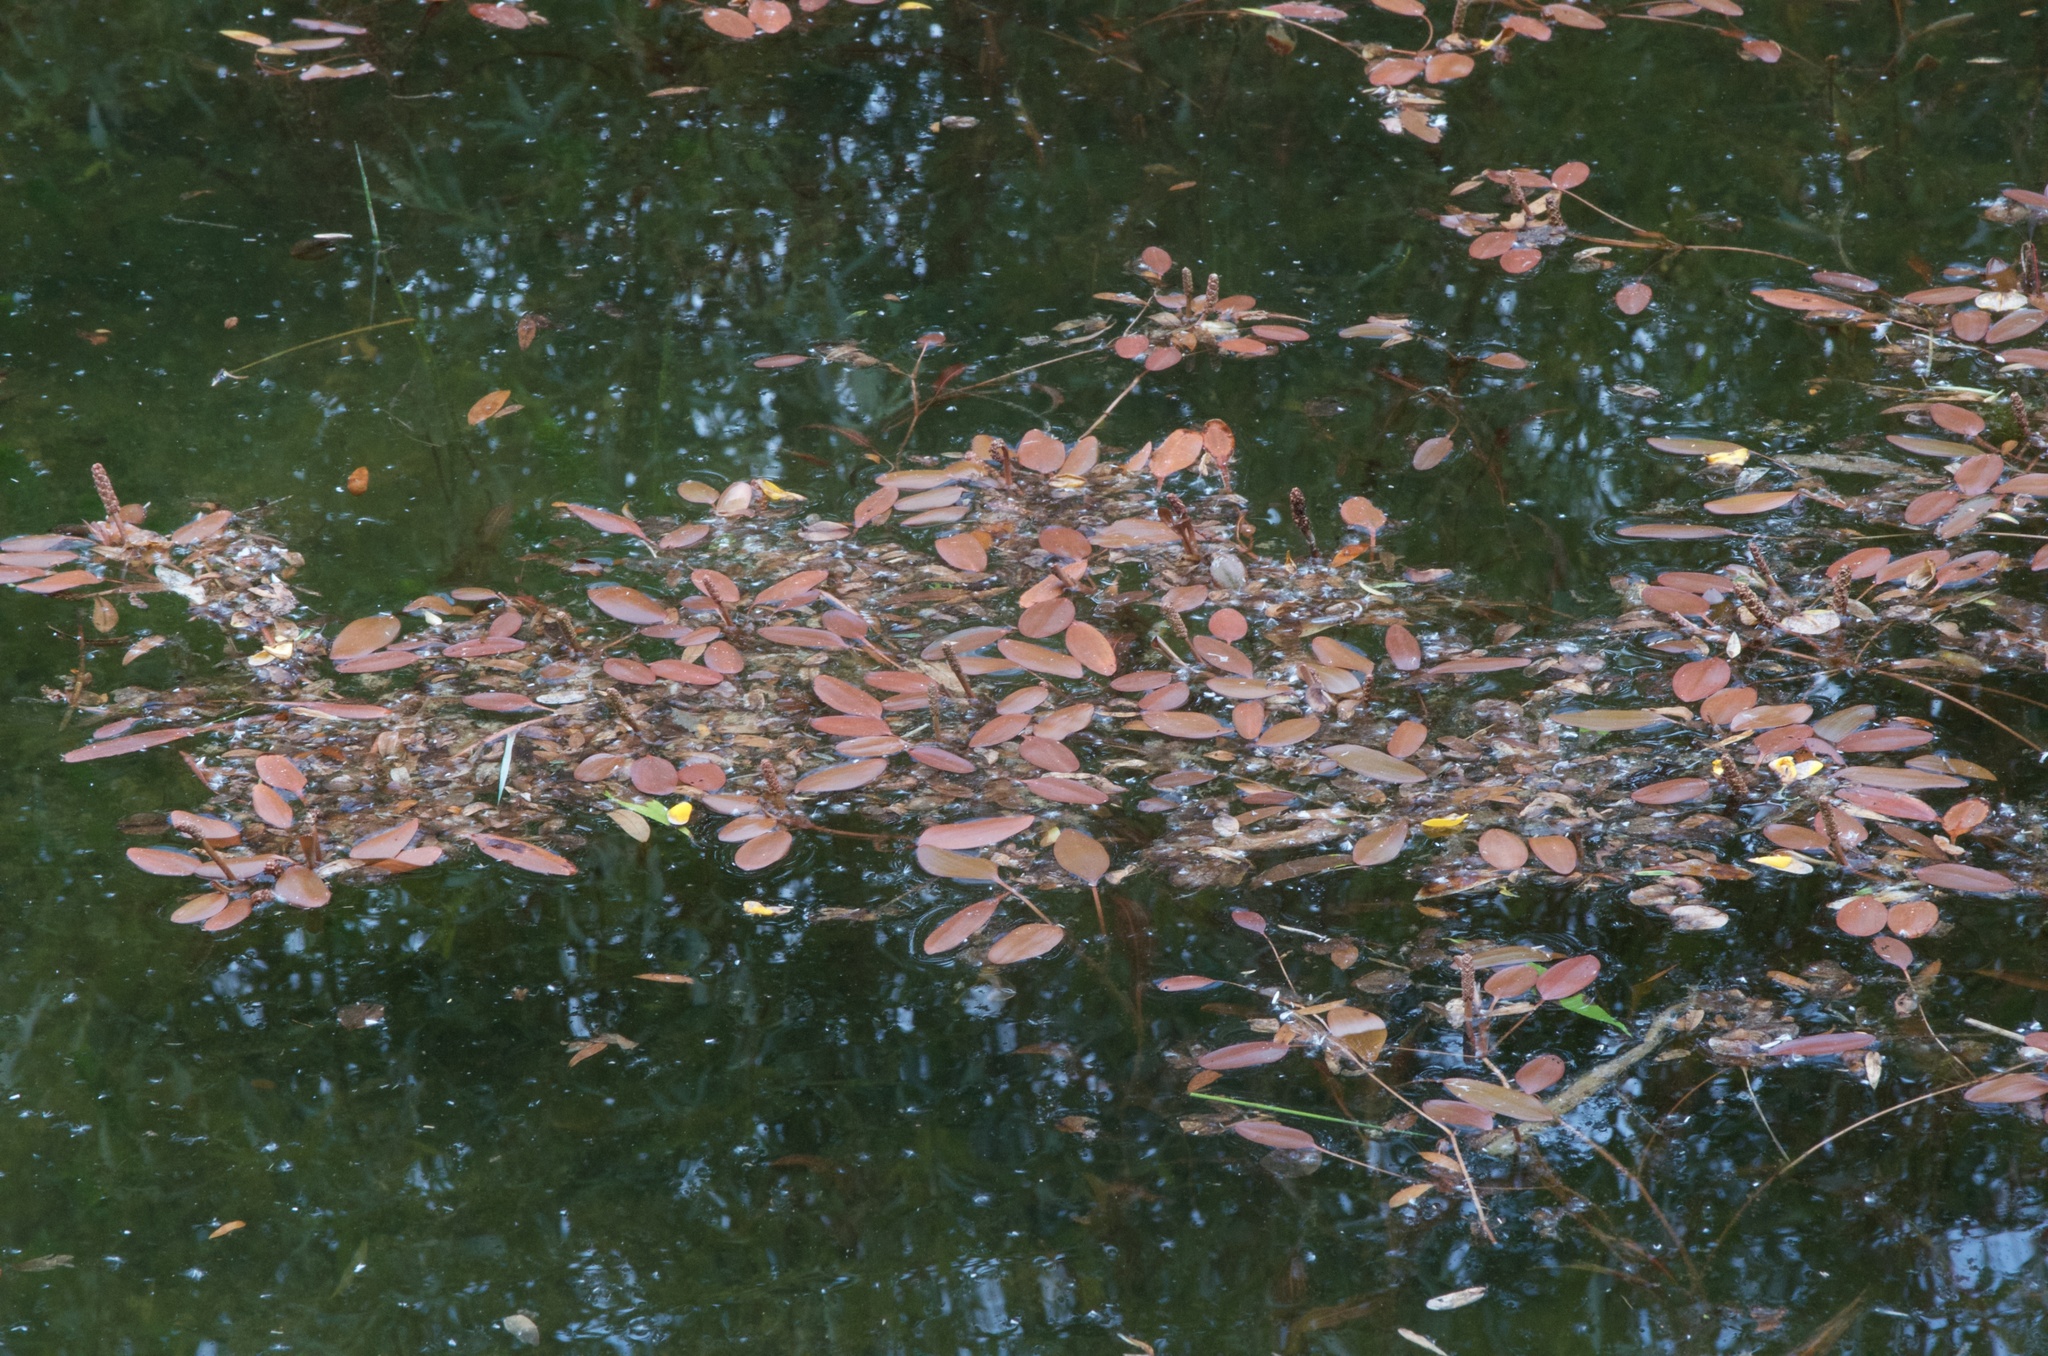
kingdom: Plantae
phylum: Tracheophyta
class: Liliopsida
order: Alismatales
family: Potamogetonaceae
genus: Potamogeton
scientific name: Potamogeton cheesemanii
